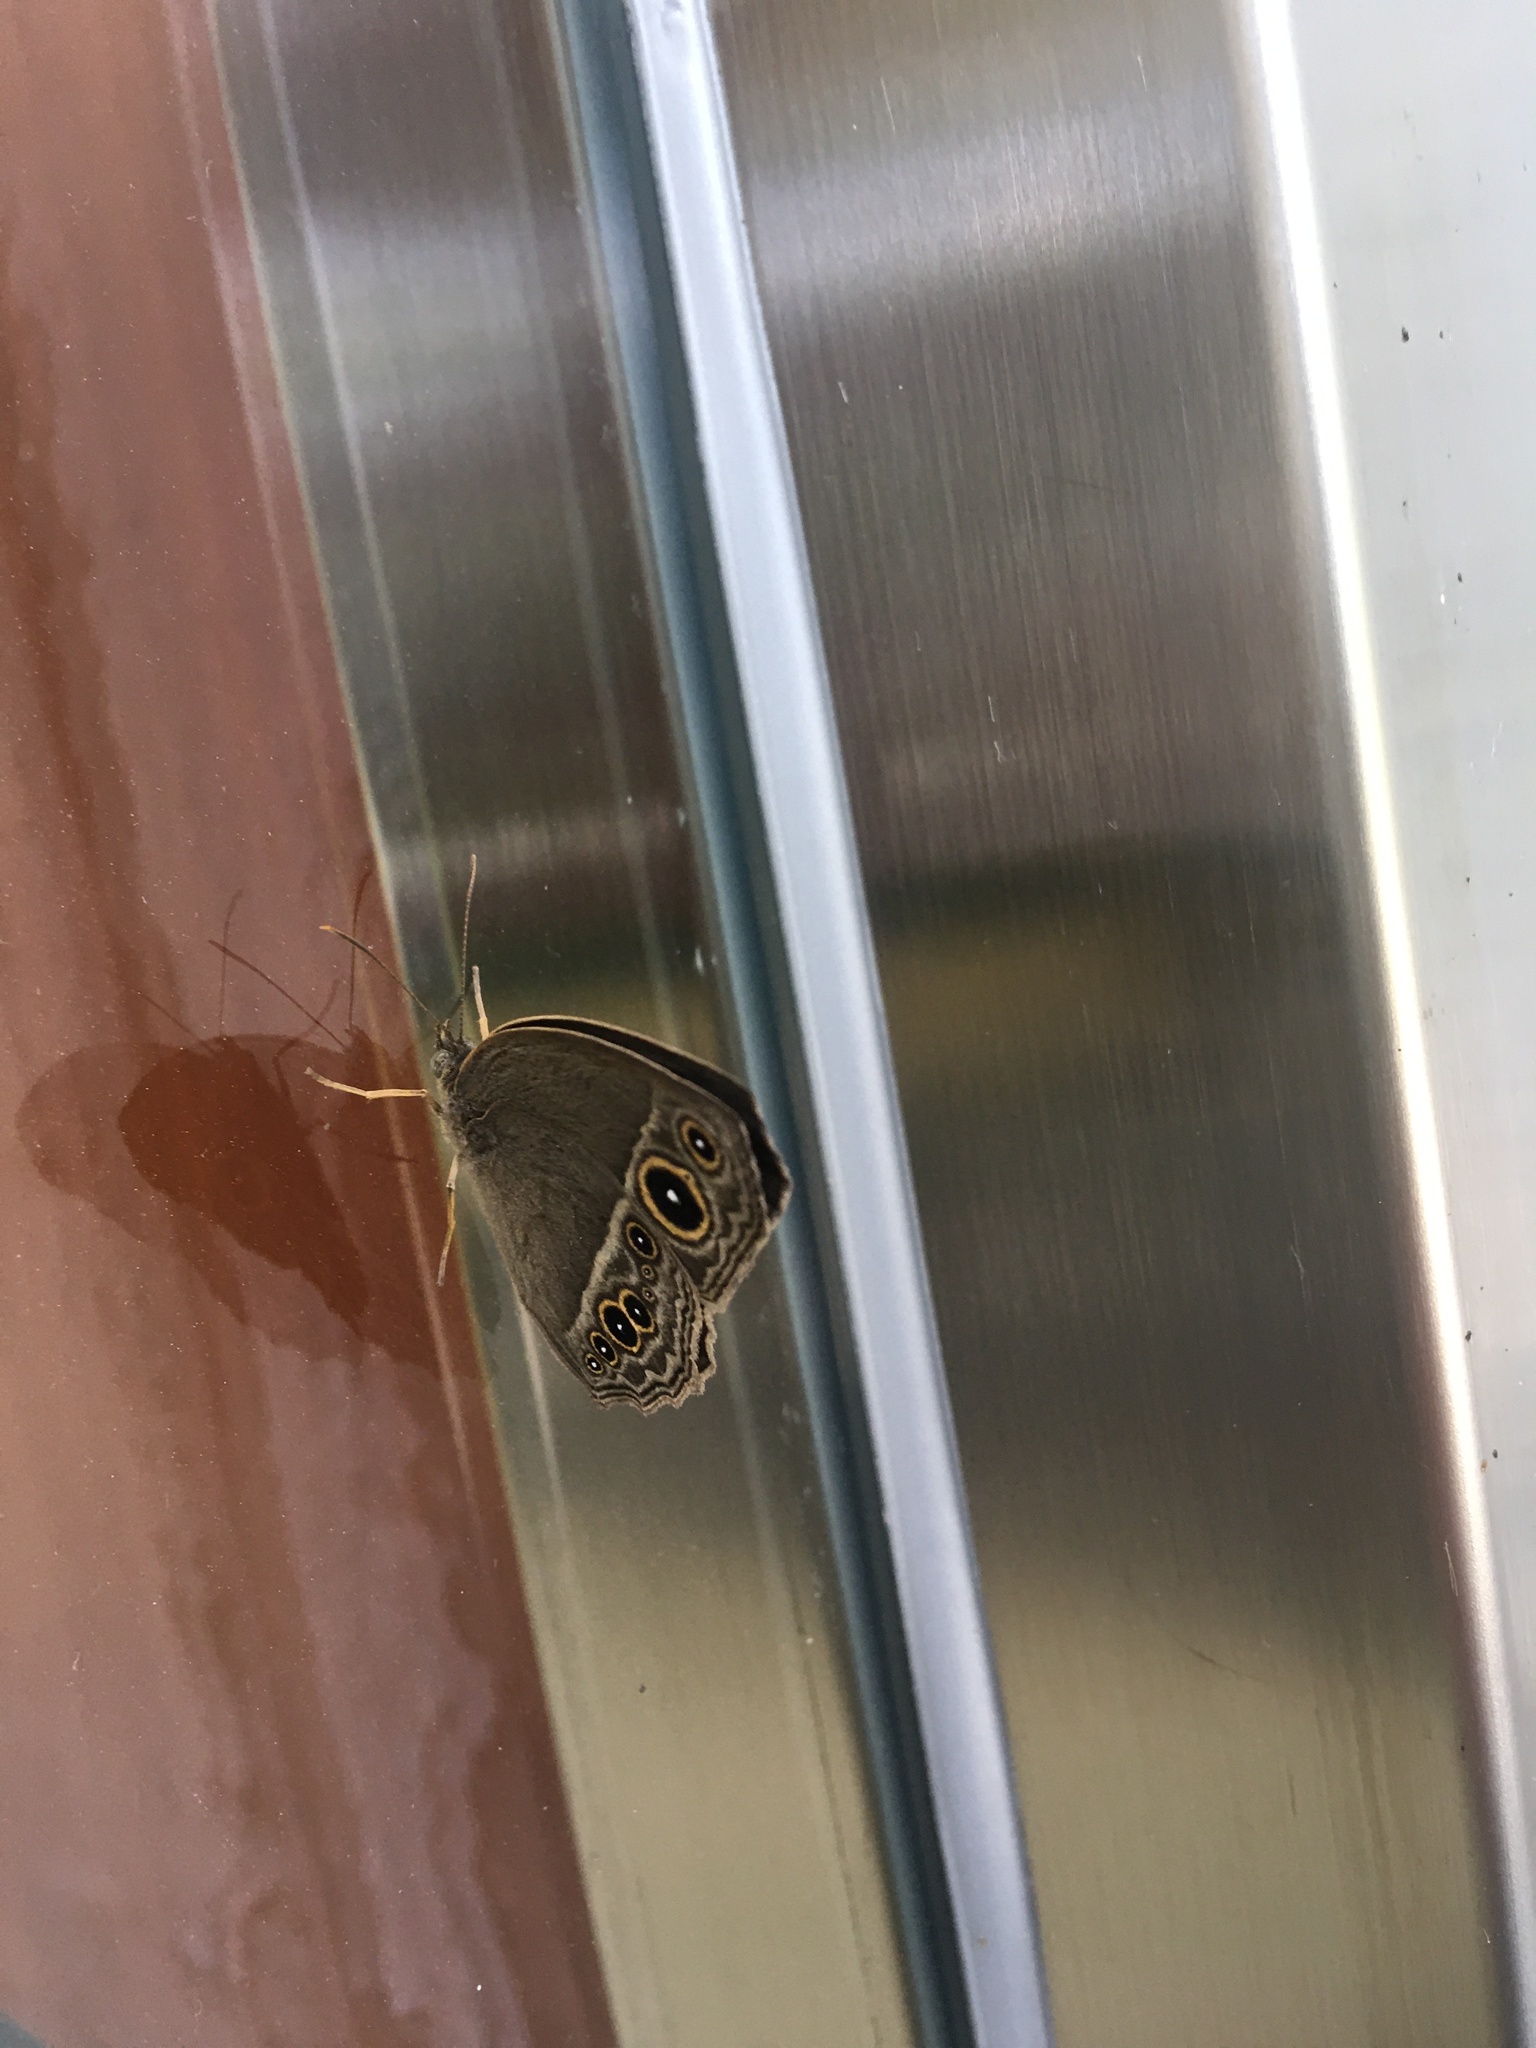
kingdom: Animalia
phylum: Arthropoda
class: Insecta
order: Lepidoptera
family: Nymphalidae
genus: Mycalesis
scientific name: Mycalesis horsfieldii
